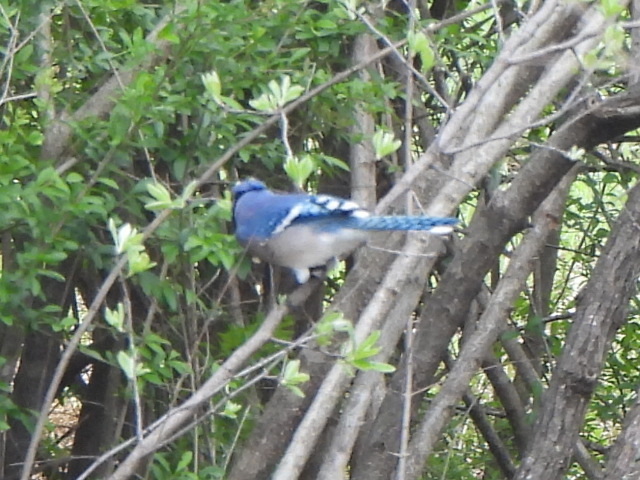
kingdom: Animalia
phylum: Chordata
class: Aves
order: Passeriformes
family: Corvidae
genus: Cyanocitta
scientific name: Cyanocitta cristata
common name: Blue jay
